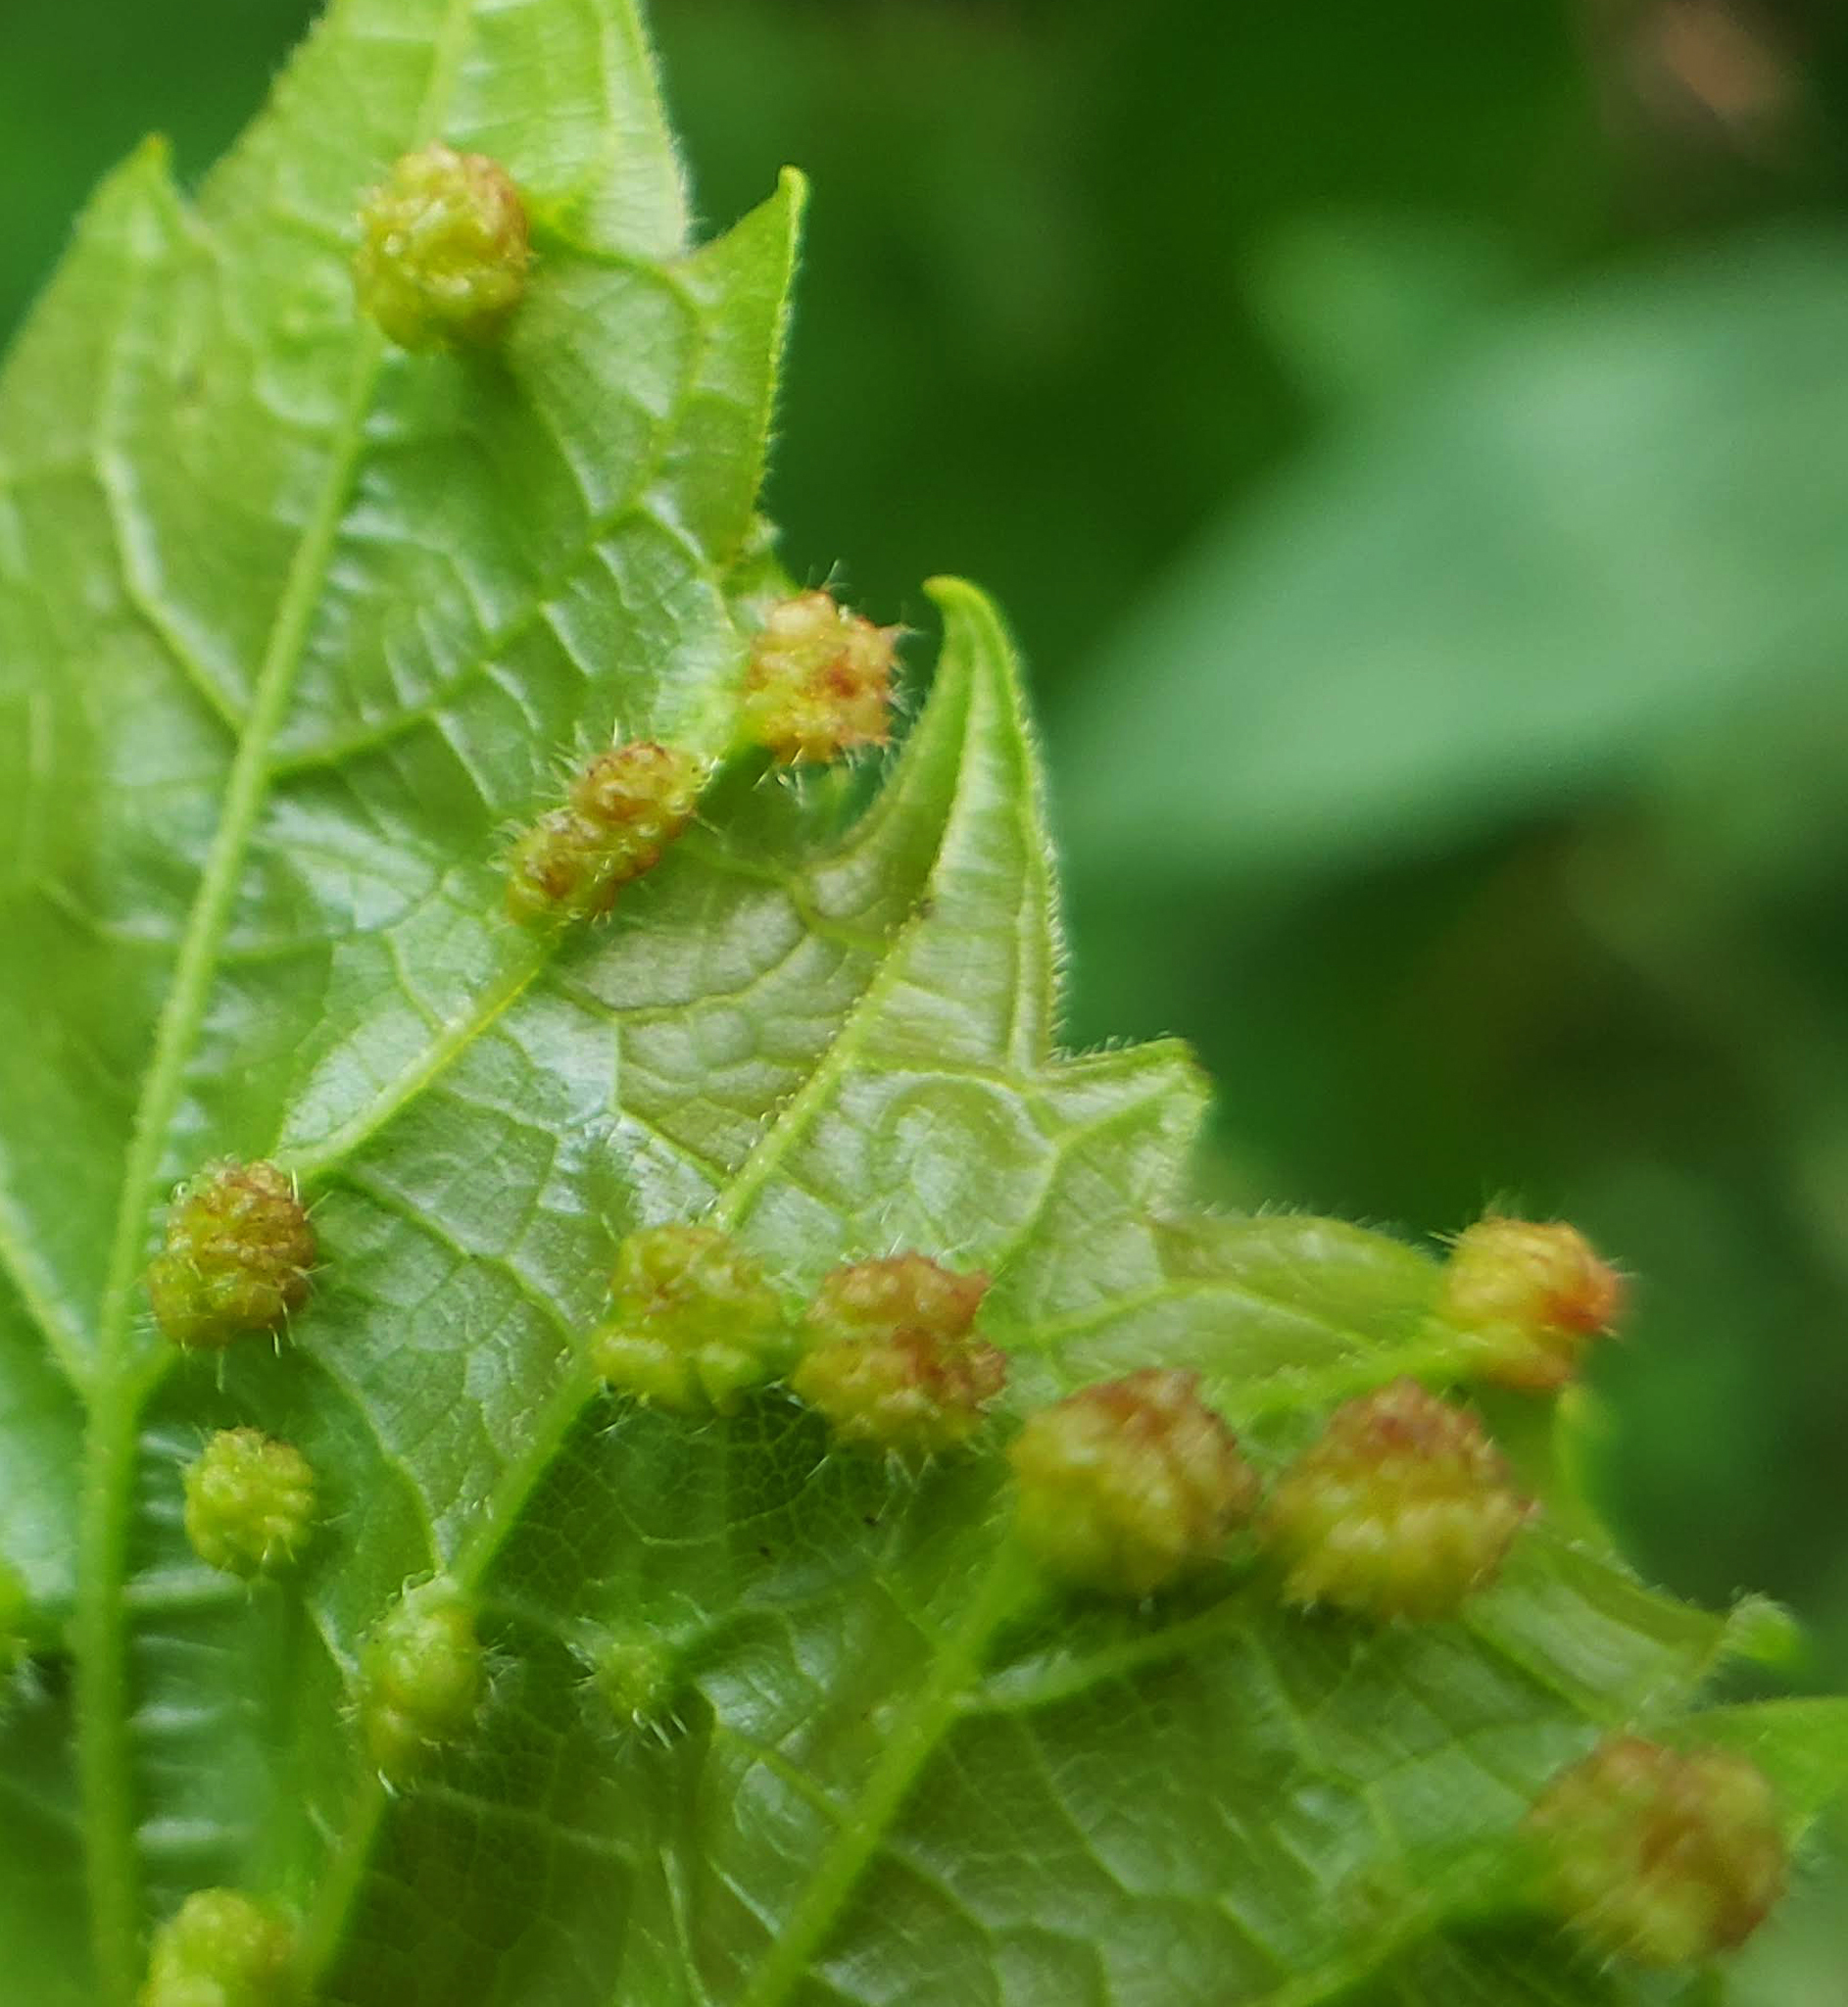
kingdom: Animalia
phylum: Arthropoda
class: Insecta
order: Hemiptera
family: Phylloxeridae
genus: Daktulosphaira
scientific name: Daktulosphaira vitifoliae
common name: Grape phylloxera
